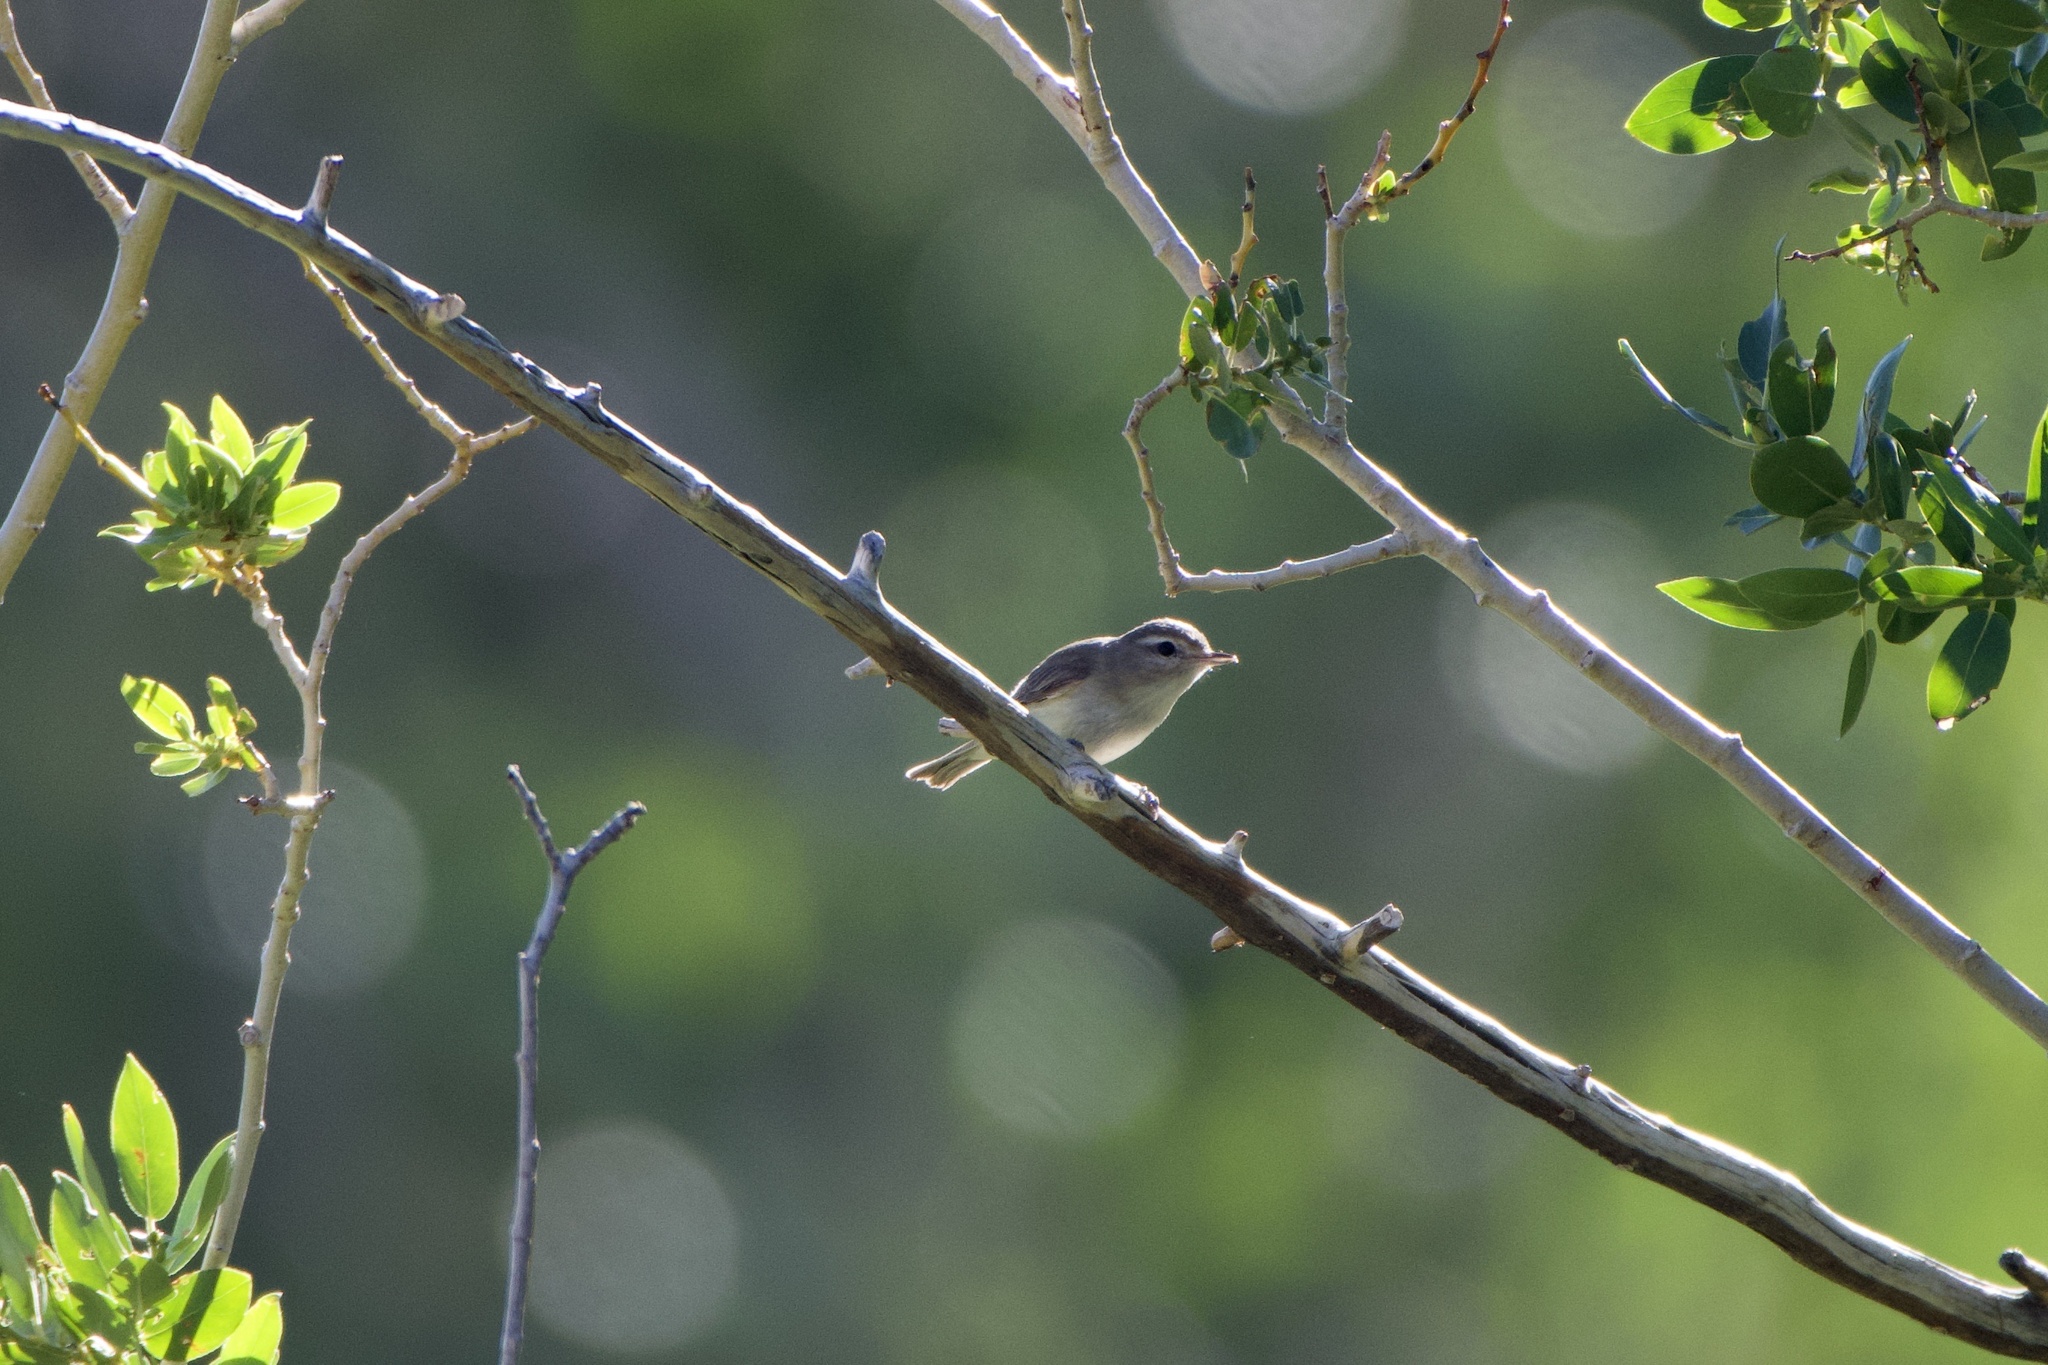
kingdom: Animalia
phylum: Chordata
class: Aves
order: Passeriformes
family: Vireonidae
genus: Vireo
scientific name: Vireo gilvus
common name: Warbling vireo
